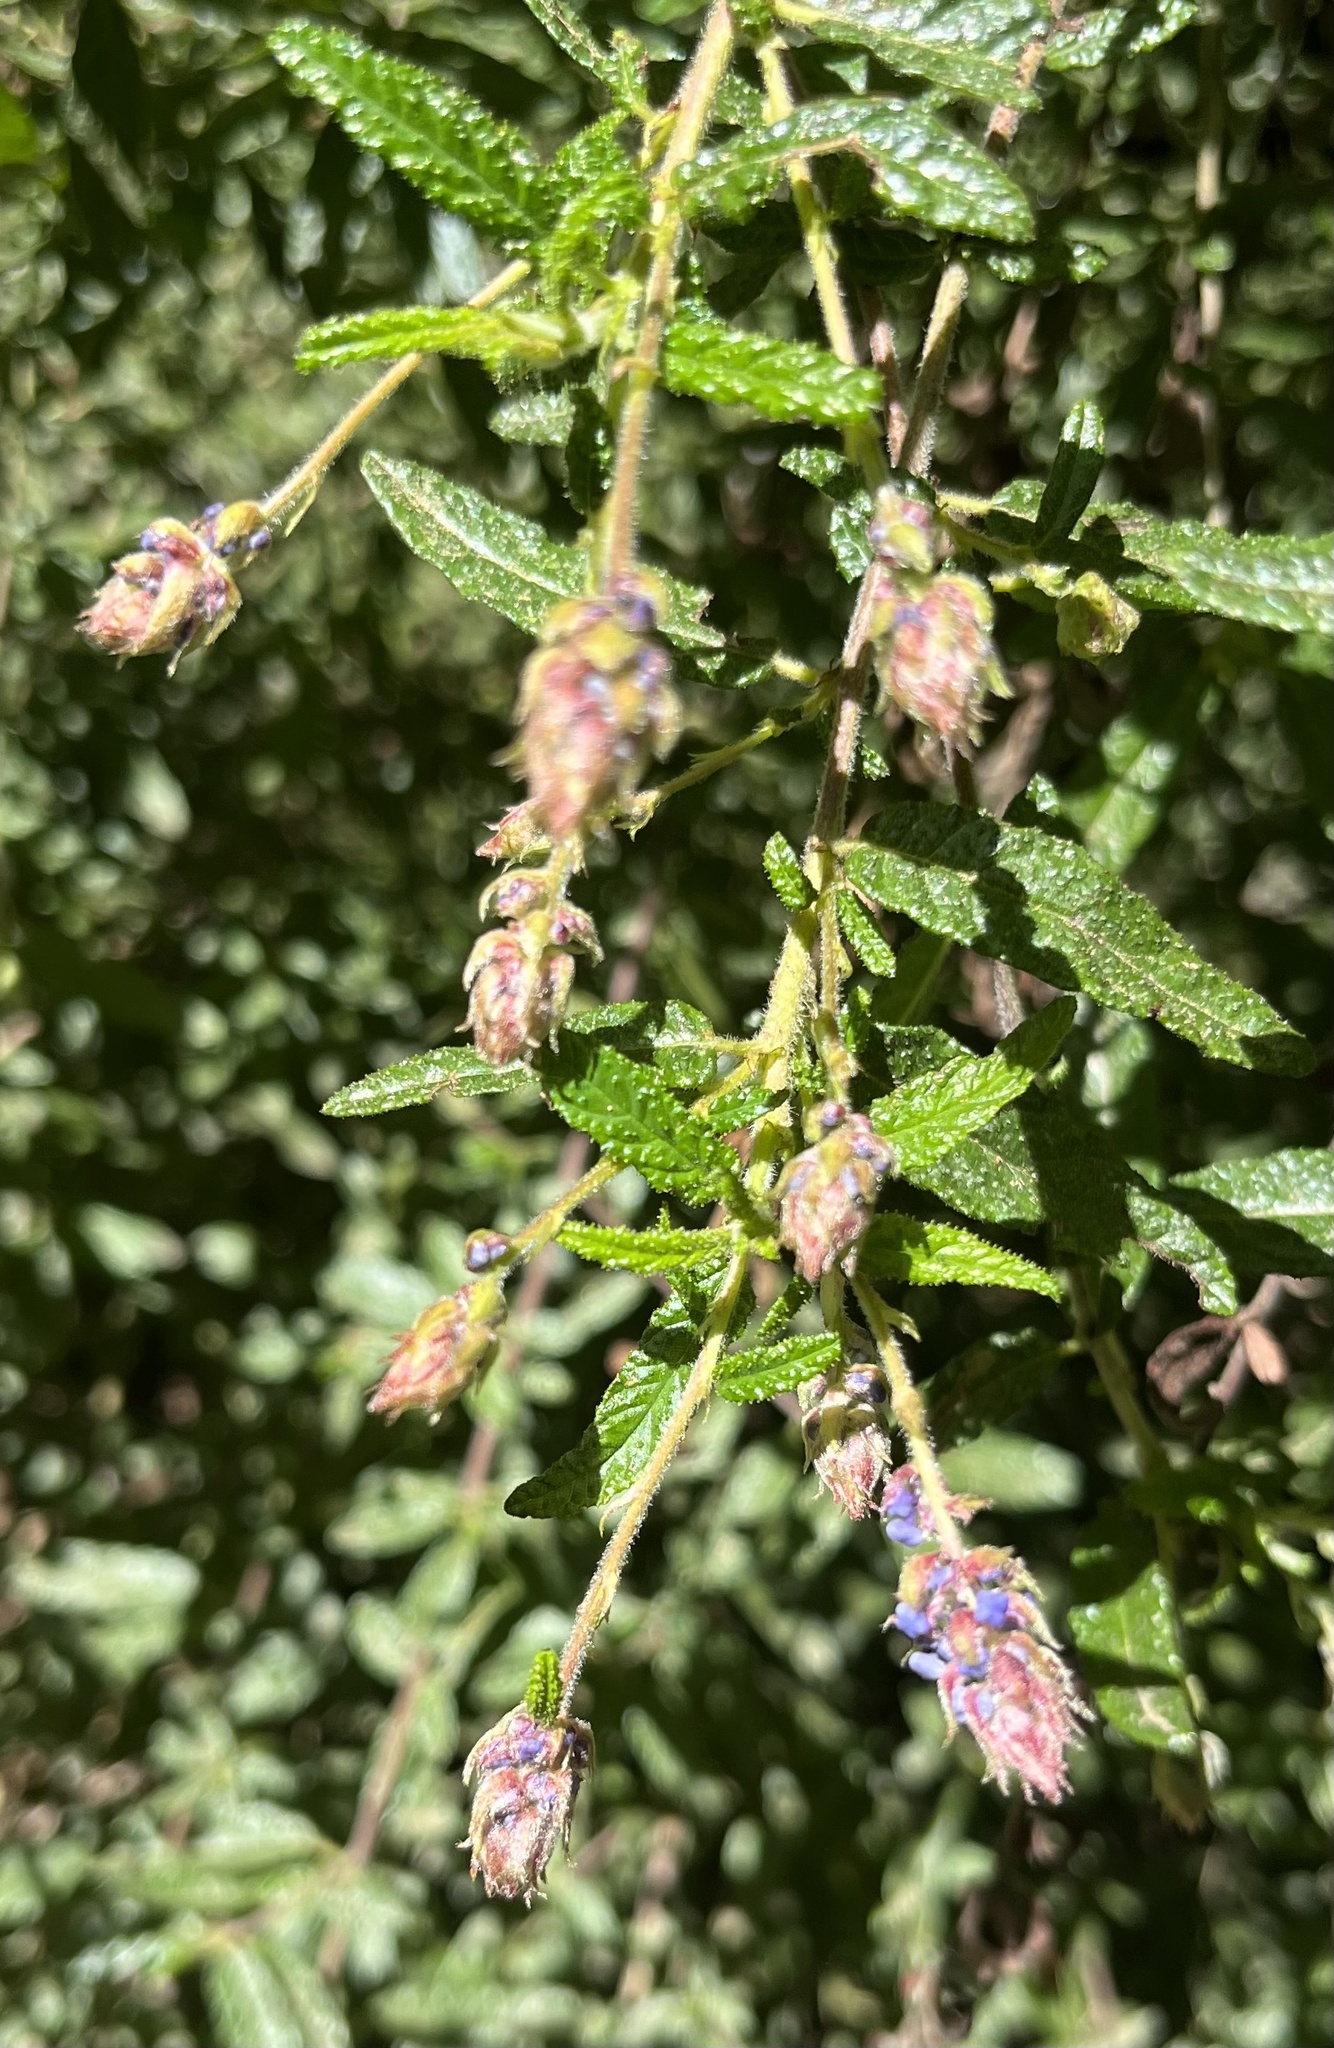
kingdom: Plantae
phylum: Tracheophyta
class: Magnoliopsida
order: Rosales
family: Rhamnaceae
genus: Ceanothus
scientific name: Ceanothus papillosus
